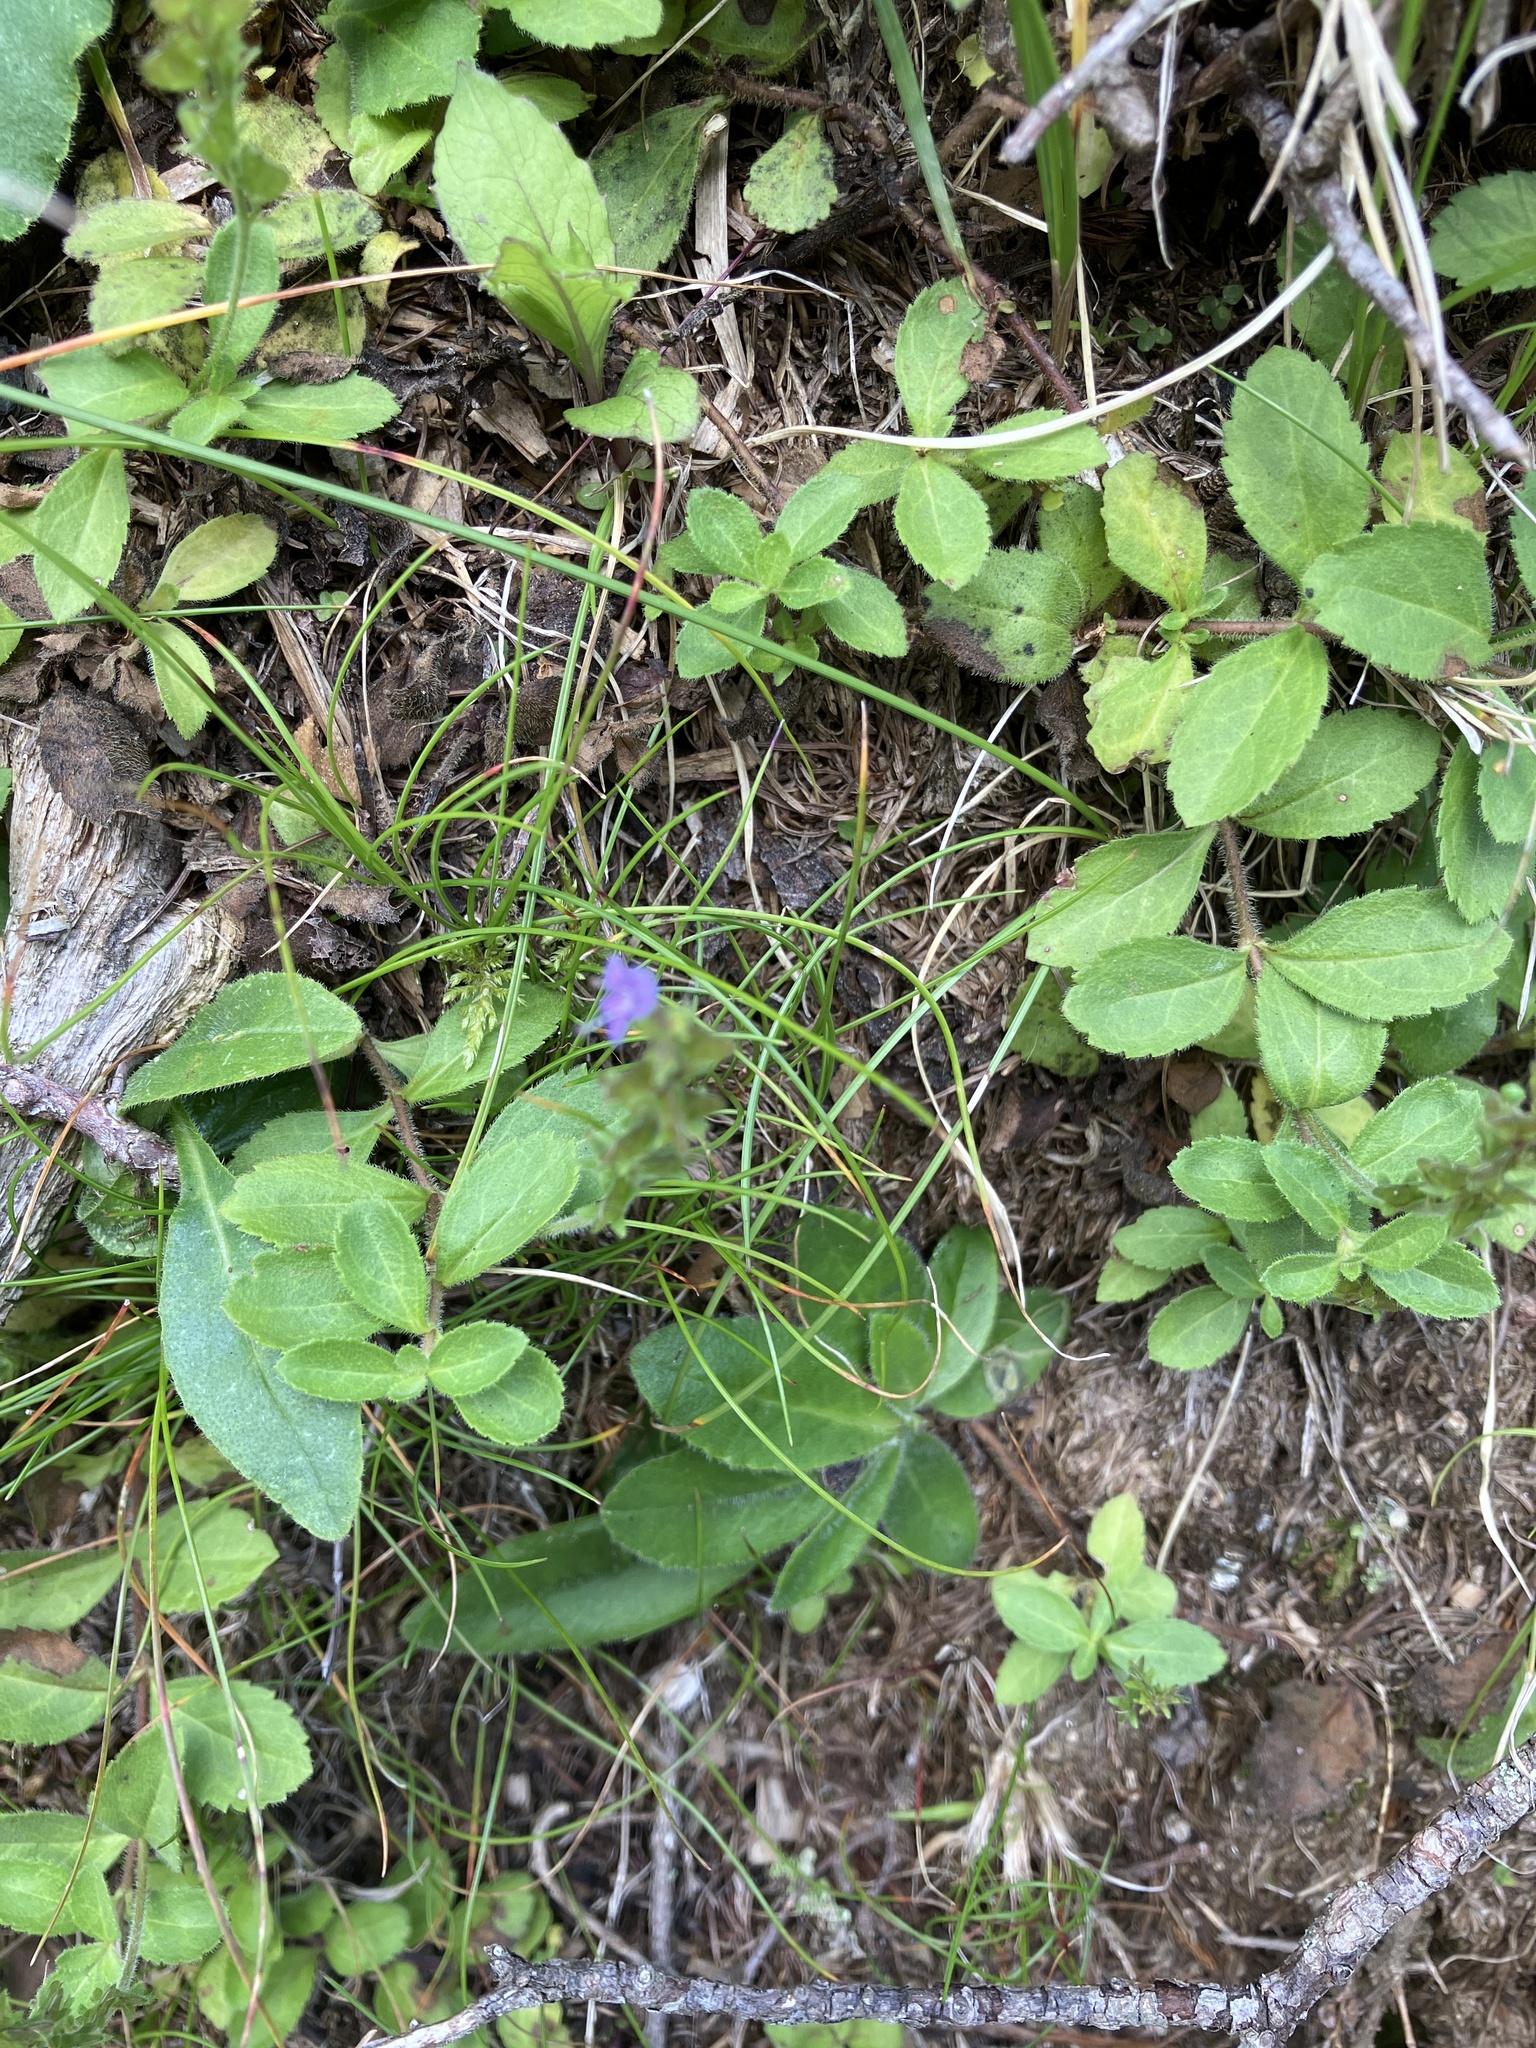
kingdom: Plantae
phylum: Tracheophyta
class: Magnoliopsida
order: Lamiales
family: Plantaginaceae
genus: Veronica
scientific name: Veronica officinalis
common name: Common speedwell
